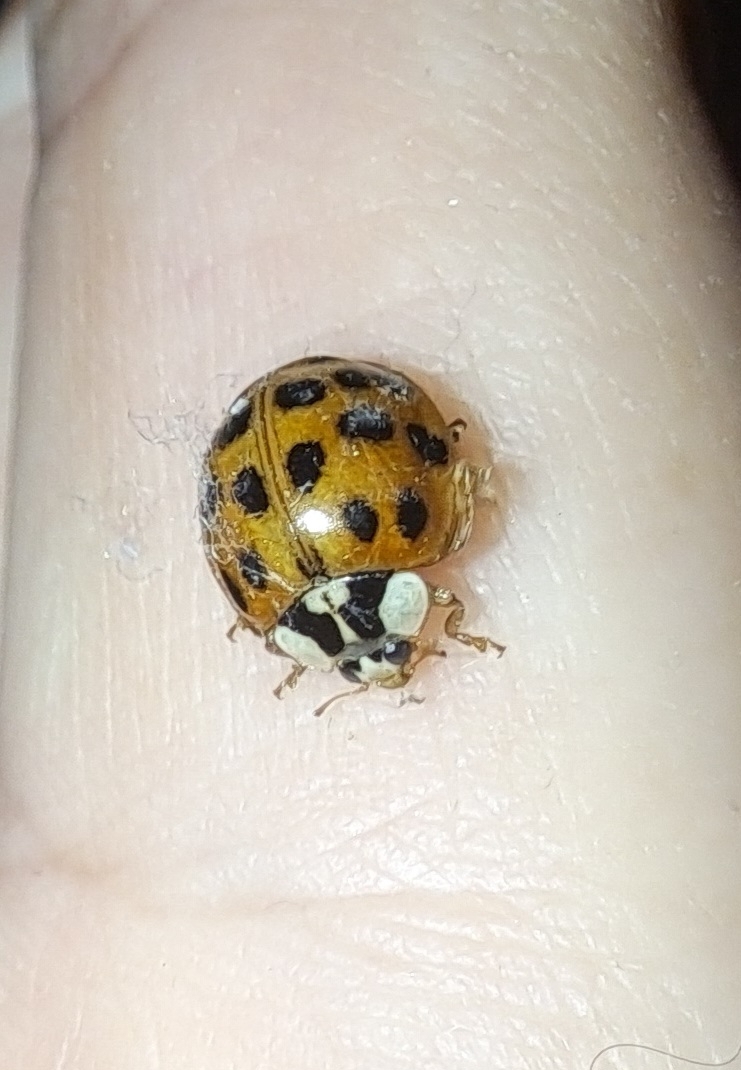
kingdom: Animalia
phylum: Arthropoda
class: Insecta
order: Coleoptera
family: Coccinellidae
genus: Harmonia
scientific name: Harmonia axyridis
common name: Harlequin ladybird
